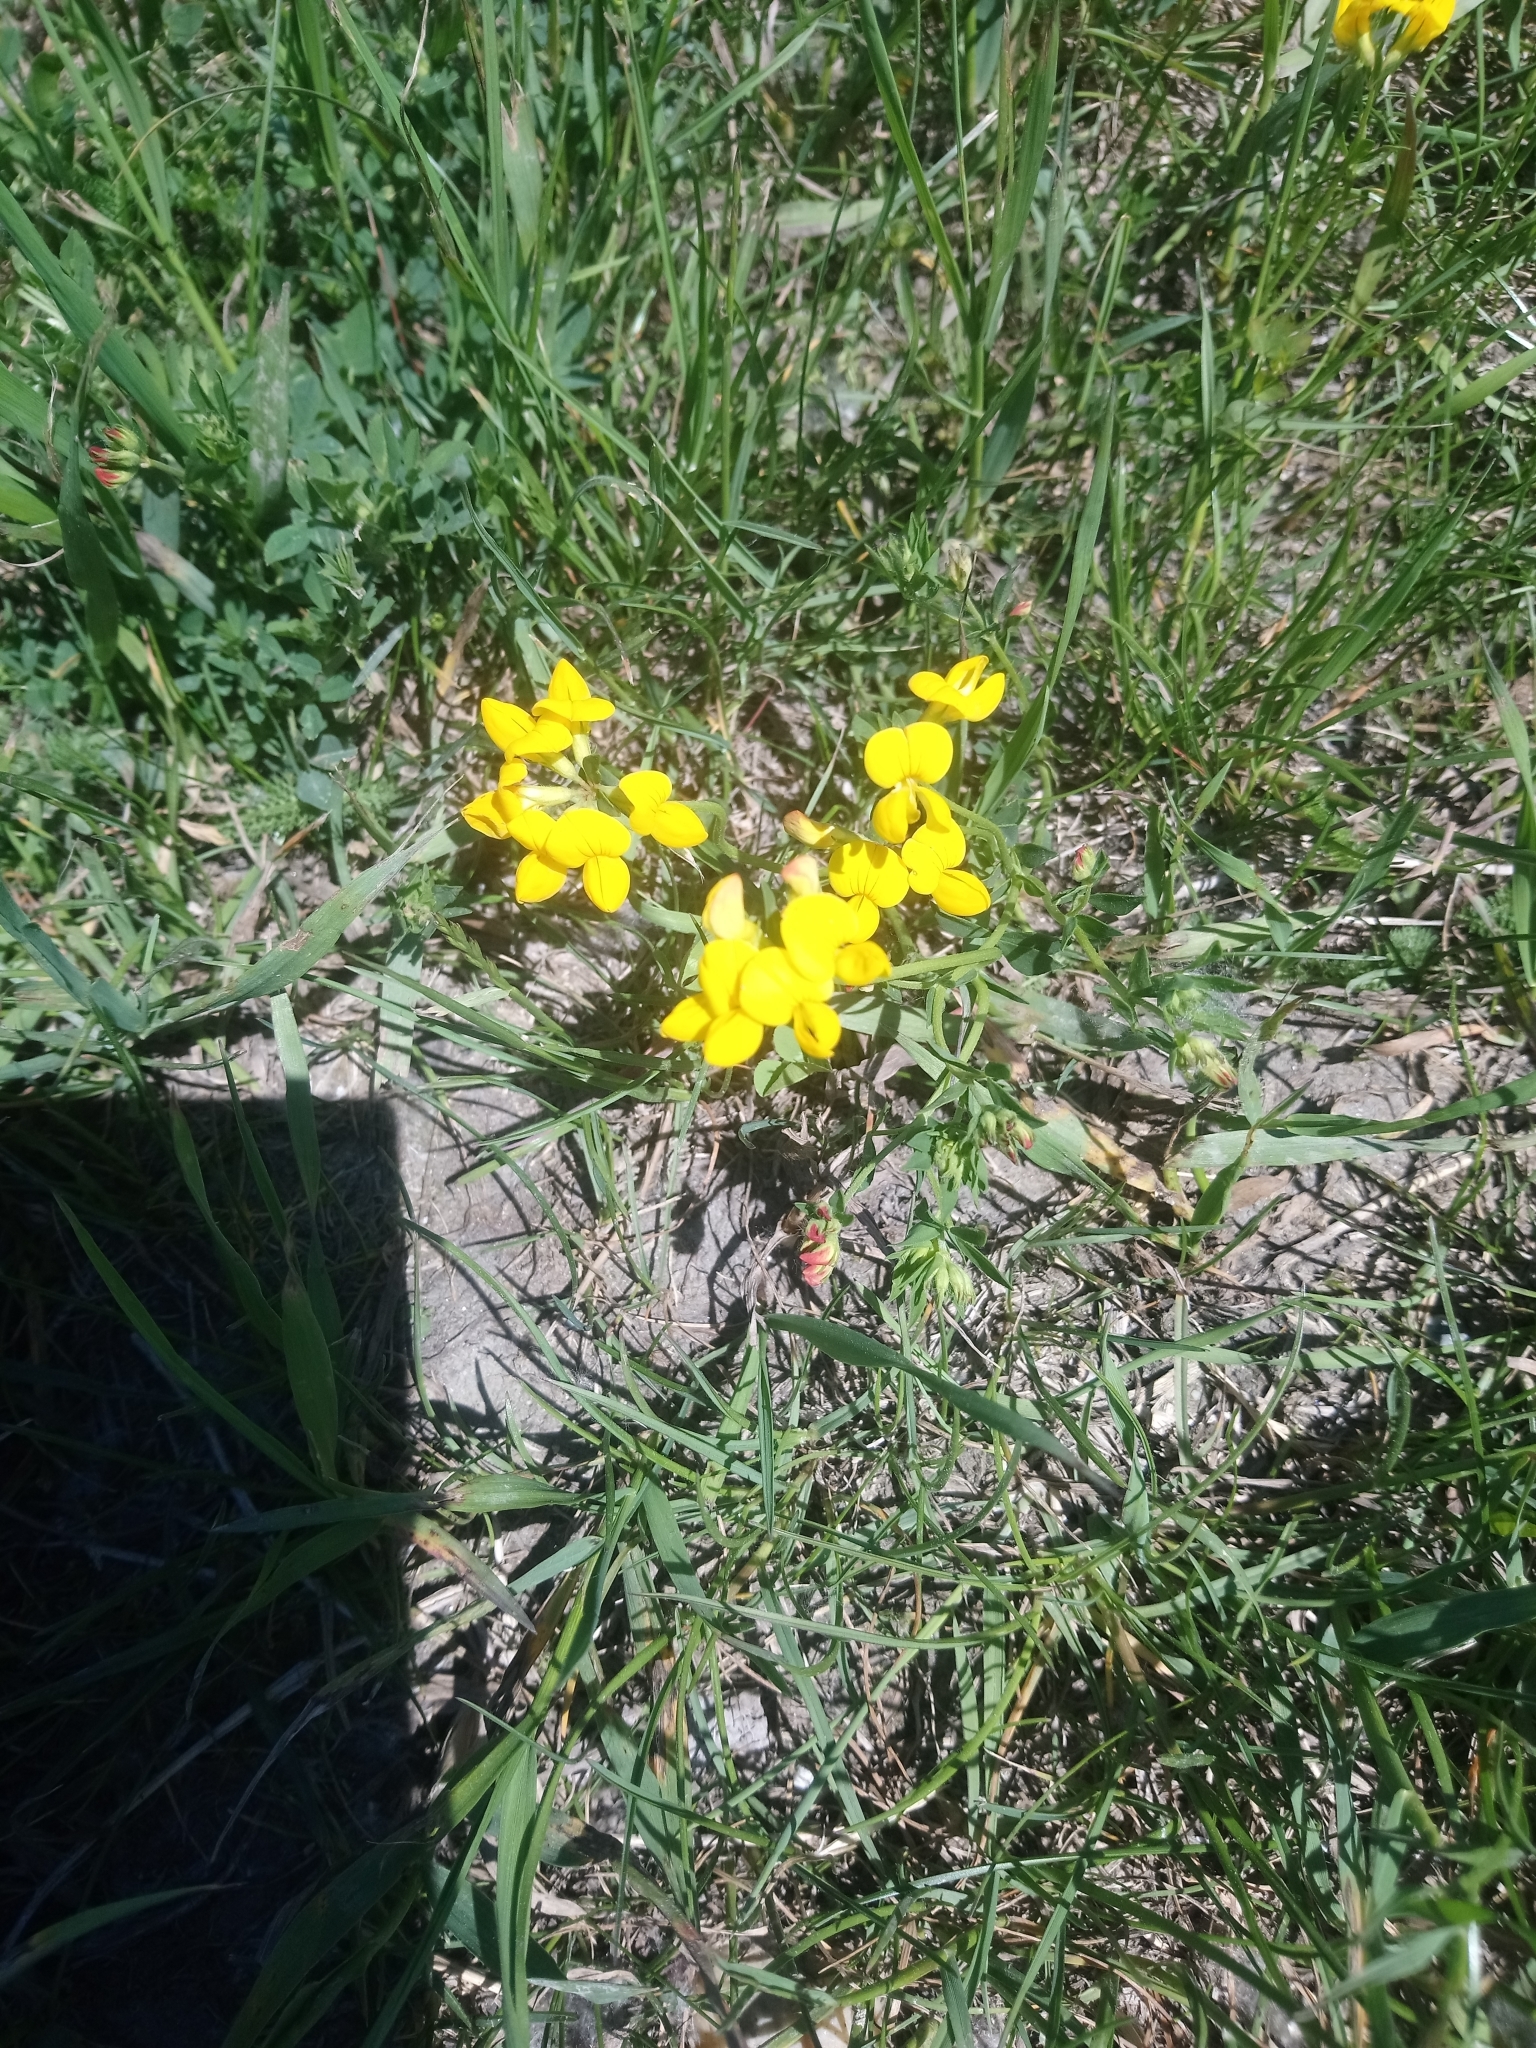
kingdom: Plantae
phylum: Tracheophyta
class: Magnoliopsida
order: Fabales
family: Fabaceae
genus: Lotus
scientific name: Lotus corniculatus
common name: Common bird's-foot-trefoil
